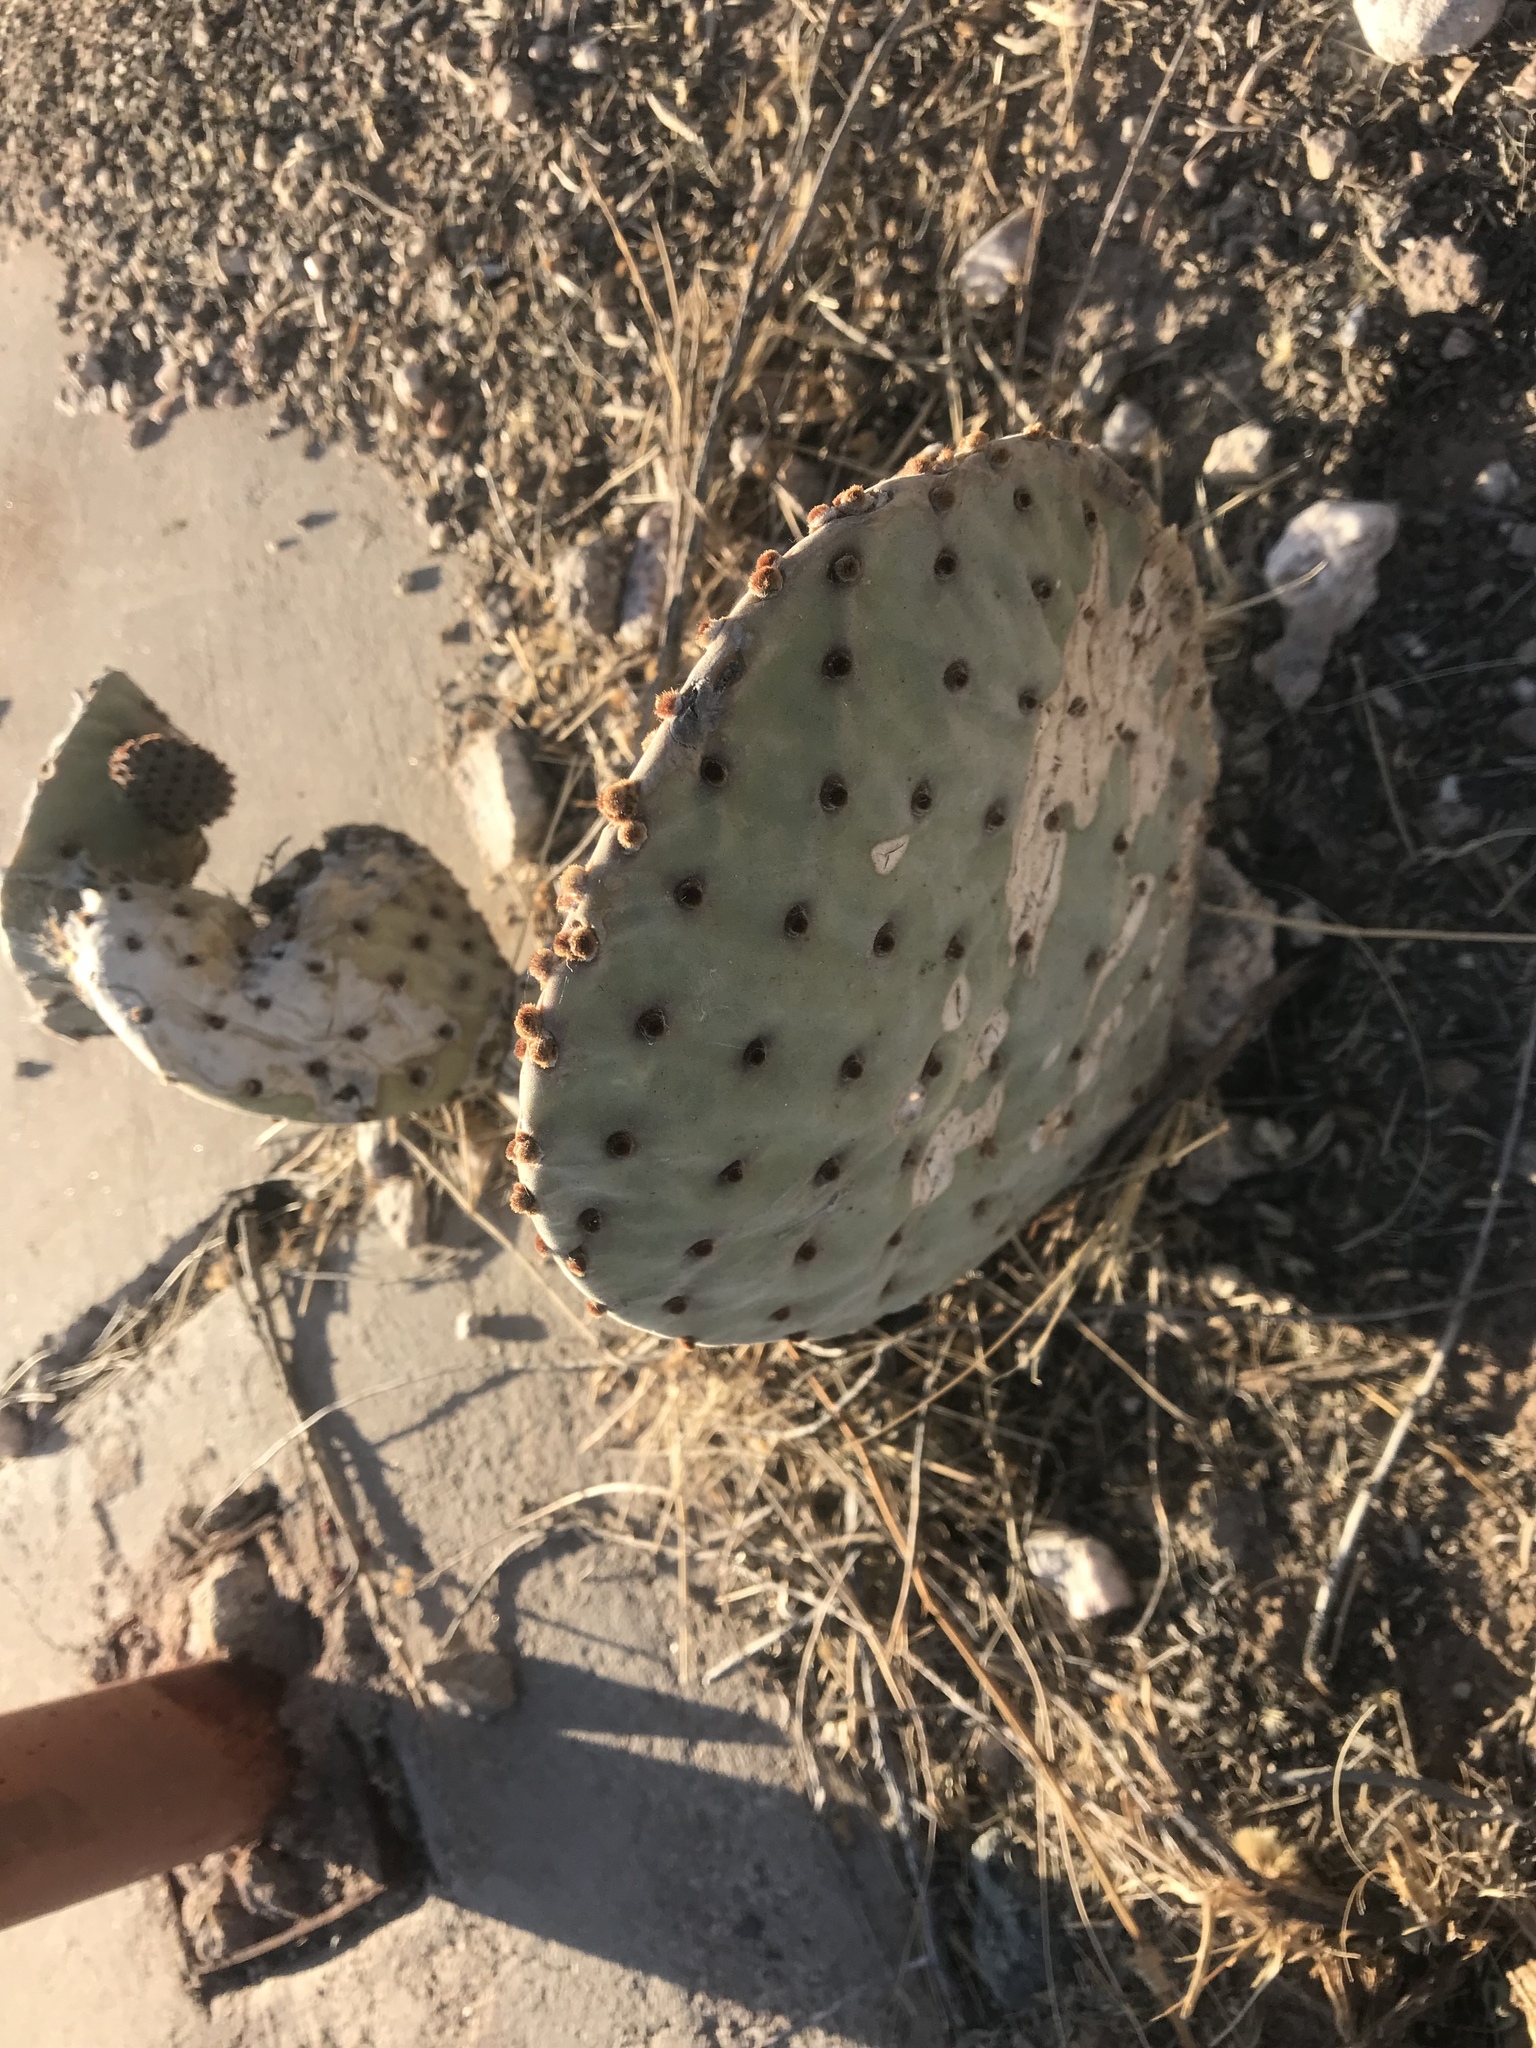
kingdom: Plantae
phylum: Tracheophyta
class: Magnoliopsida
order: Caryophyllales
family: Cactaceae
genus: Opuntia
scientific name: Opuntia rufida
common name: Blind pricklypear
